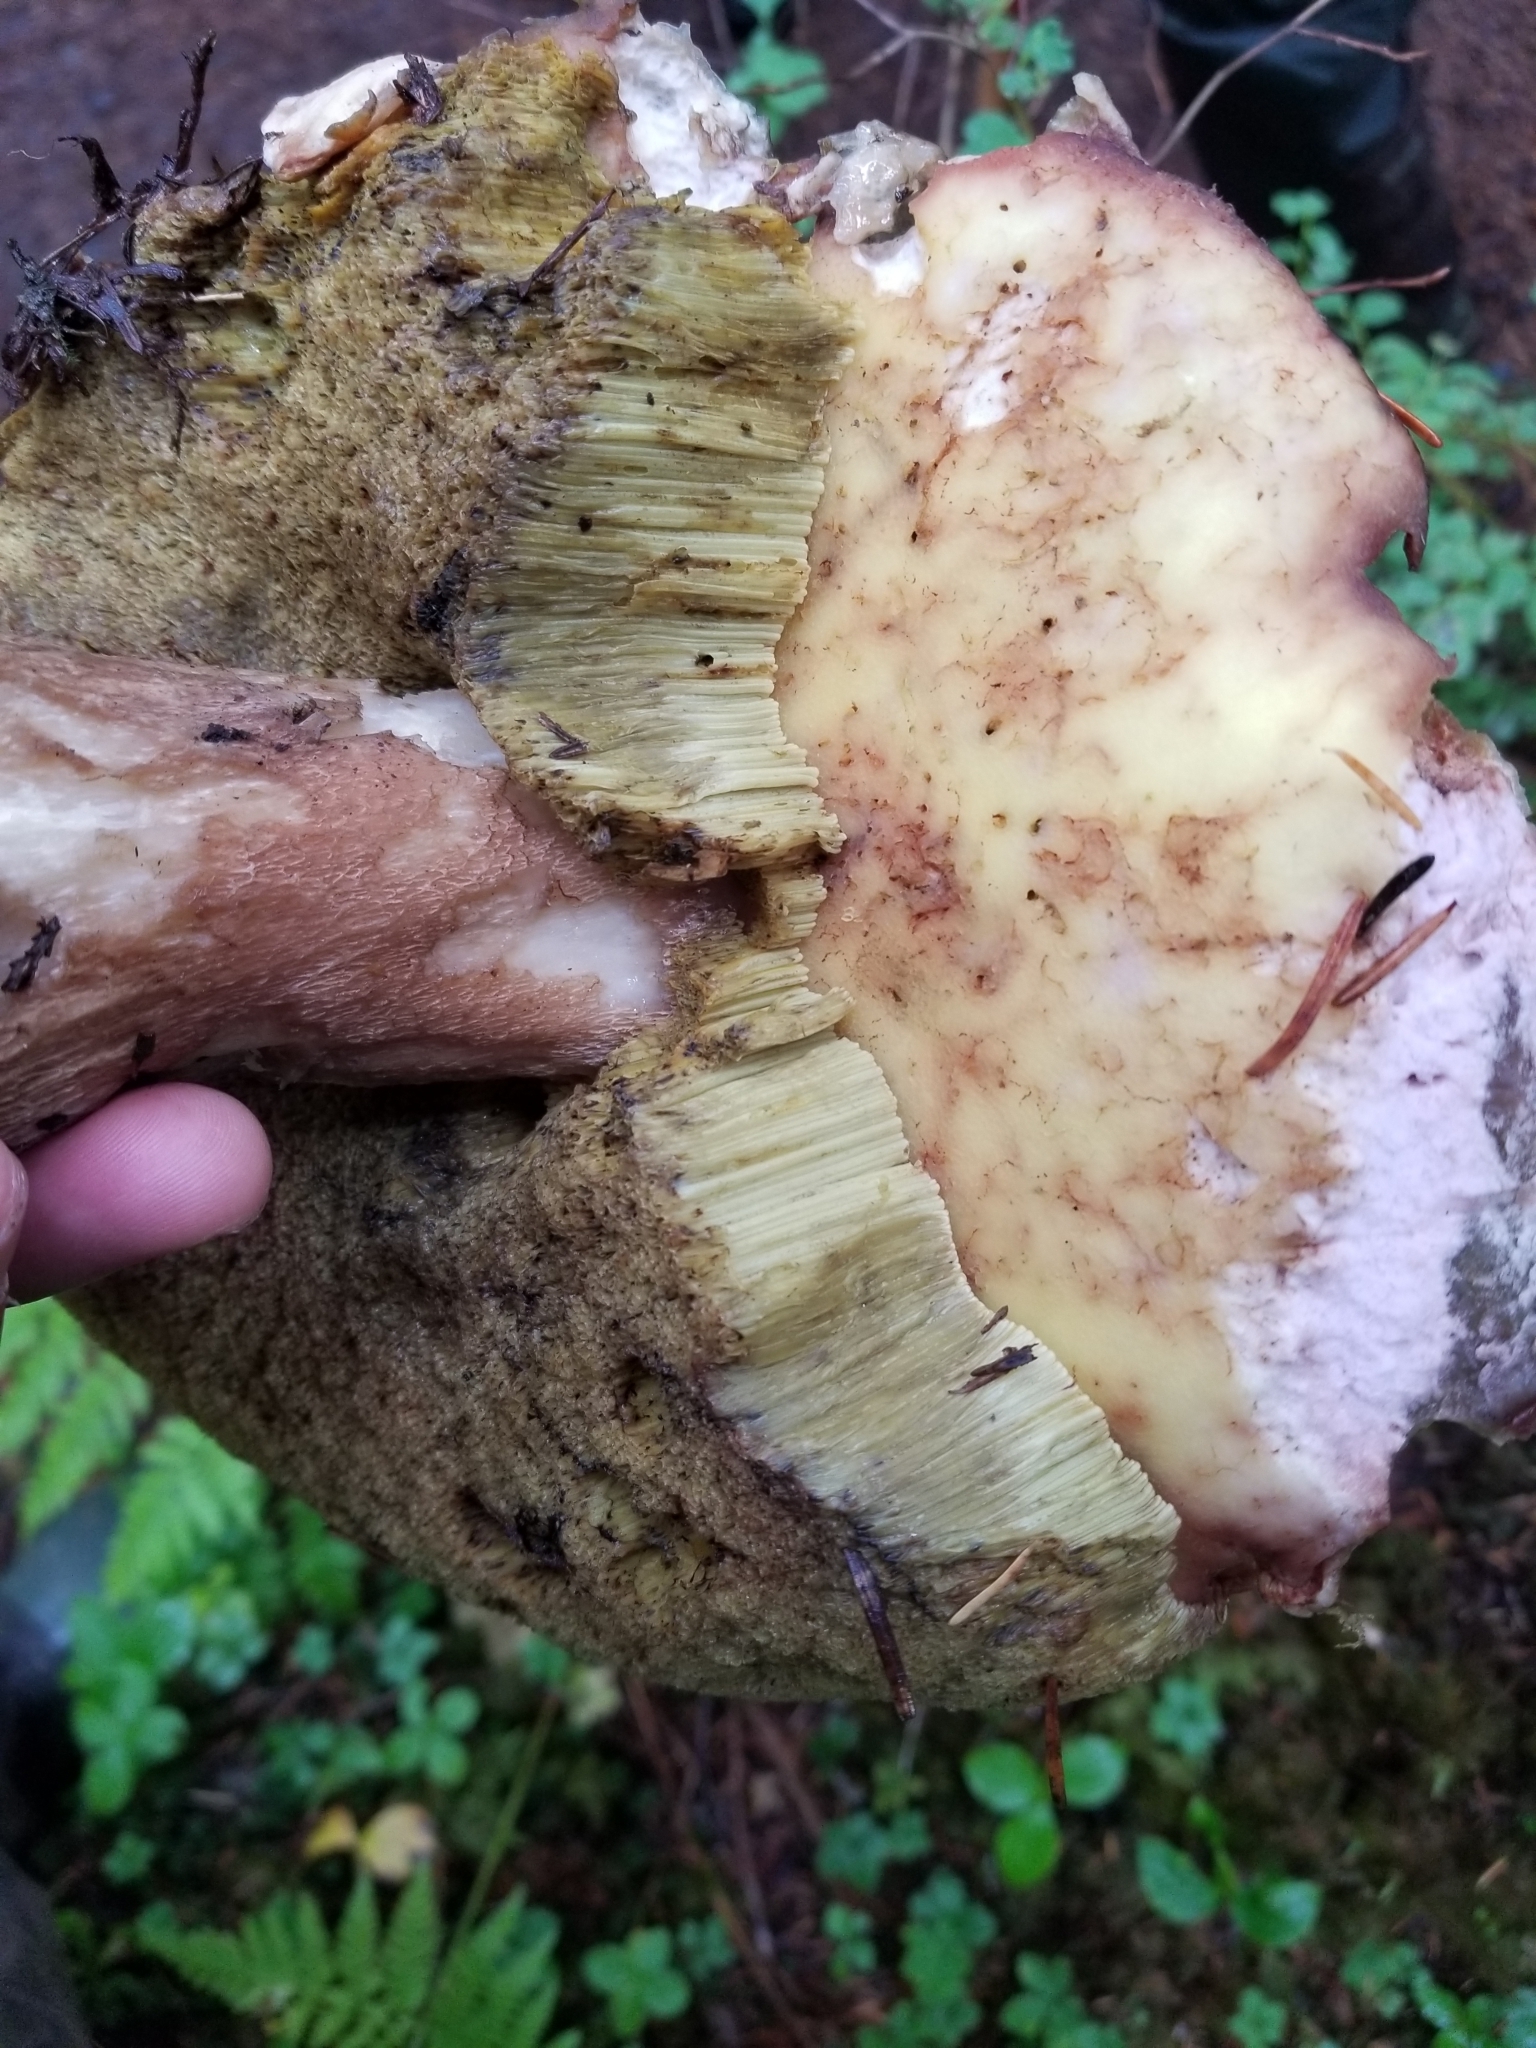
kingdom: Fungi
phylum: Basidiomycota
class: Agaricomycetes
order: Boletales
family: Boletaceae
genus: Boletus
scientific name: Boletus edulis
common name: Cep
